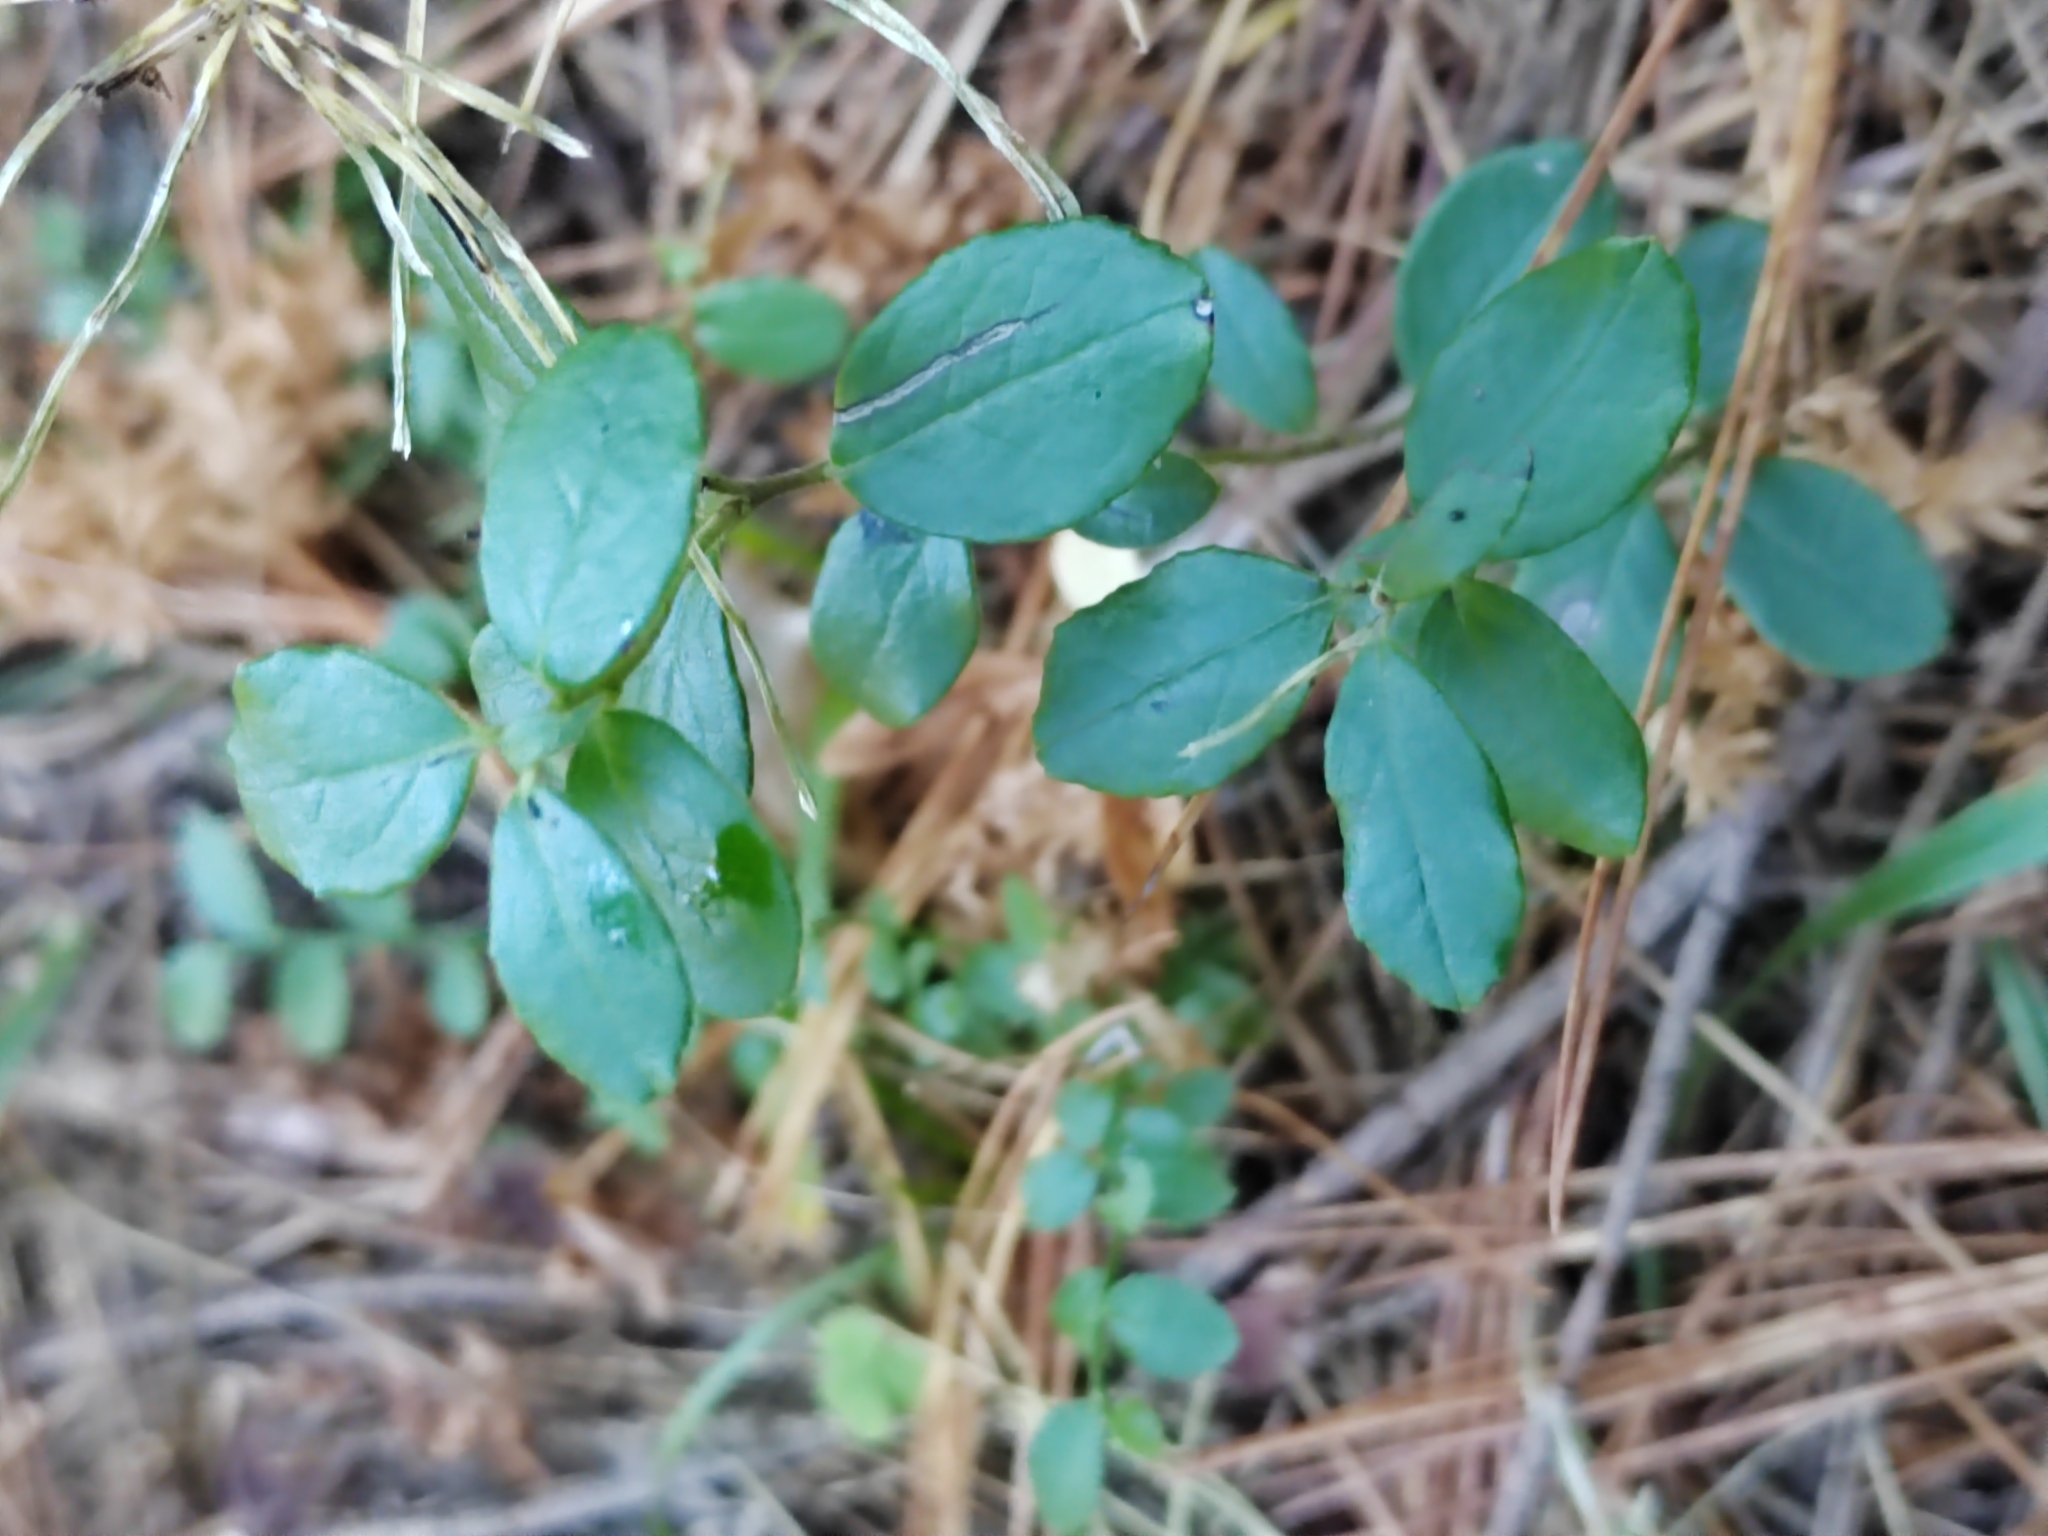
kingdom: Plantae
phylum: Tracheophyta
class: Magnoliopsida
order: Ericales
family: Ericaceae
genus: Vaccinium
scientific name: Vaccinium vitis-idaea
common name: Cowberry
